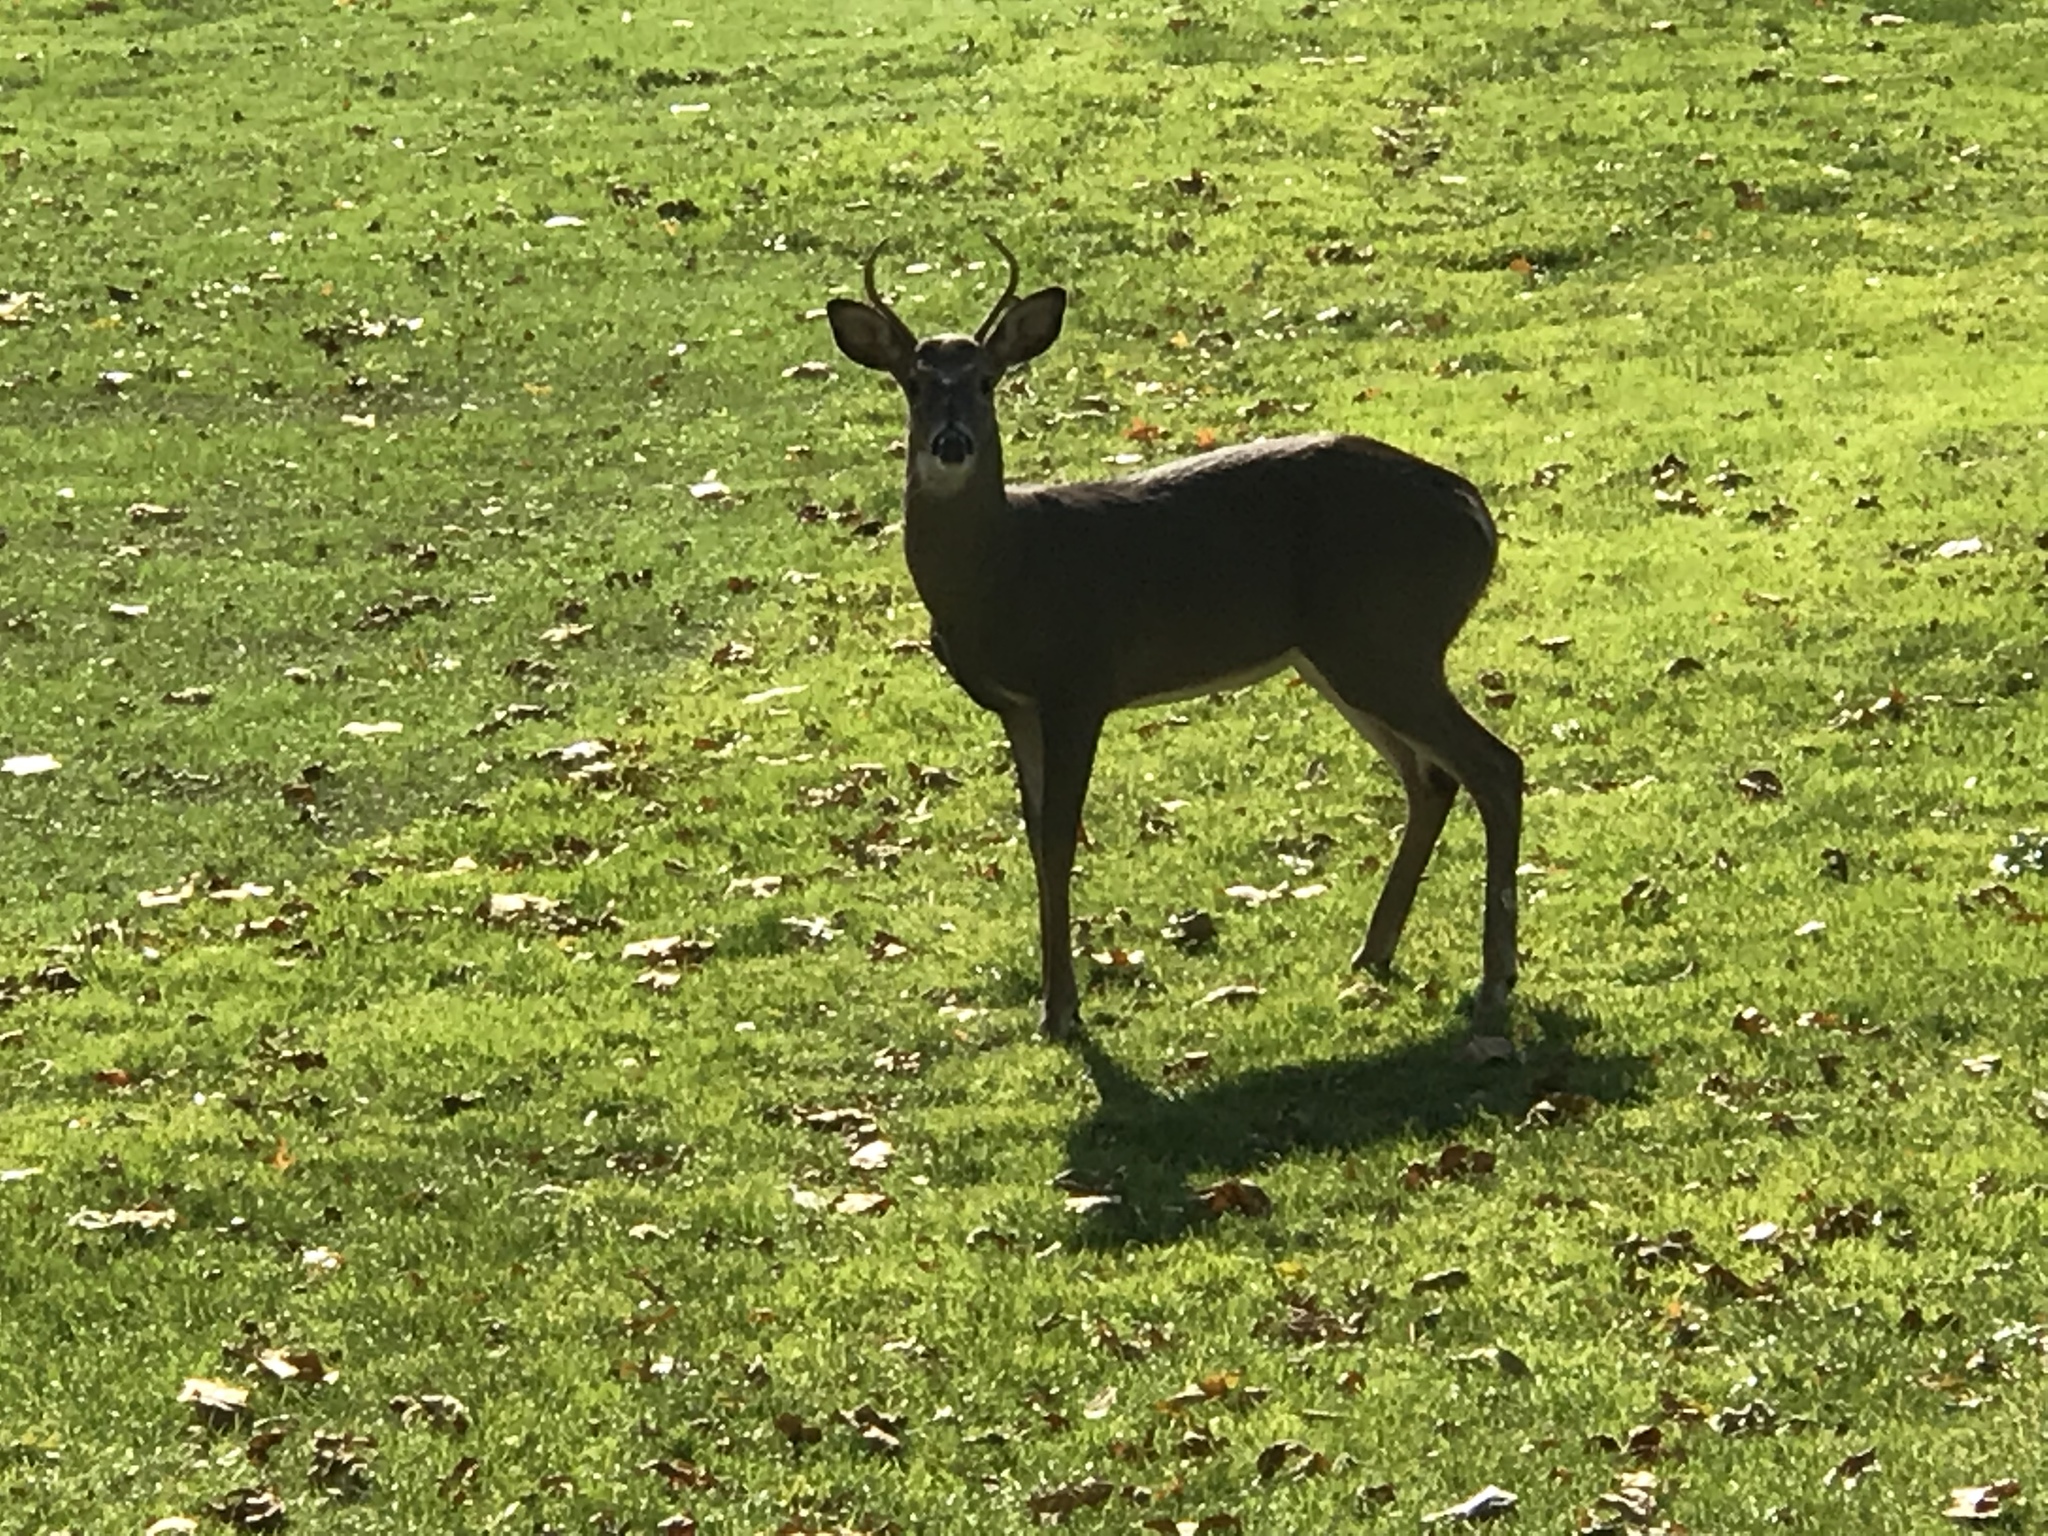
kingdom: Animalia
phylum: Chordata
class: Mammalia
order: Artiodactyla
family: Cervidae
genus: Odocoileus
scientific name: Odocoileus virginianus
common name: White-tailed deer
